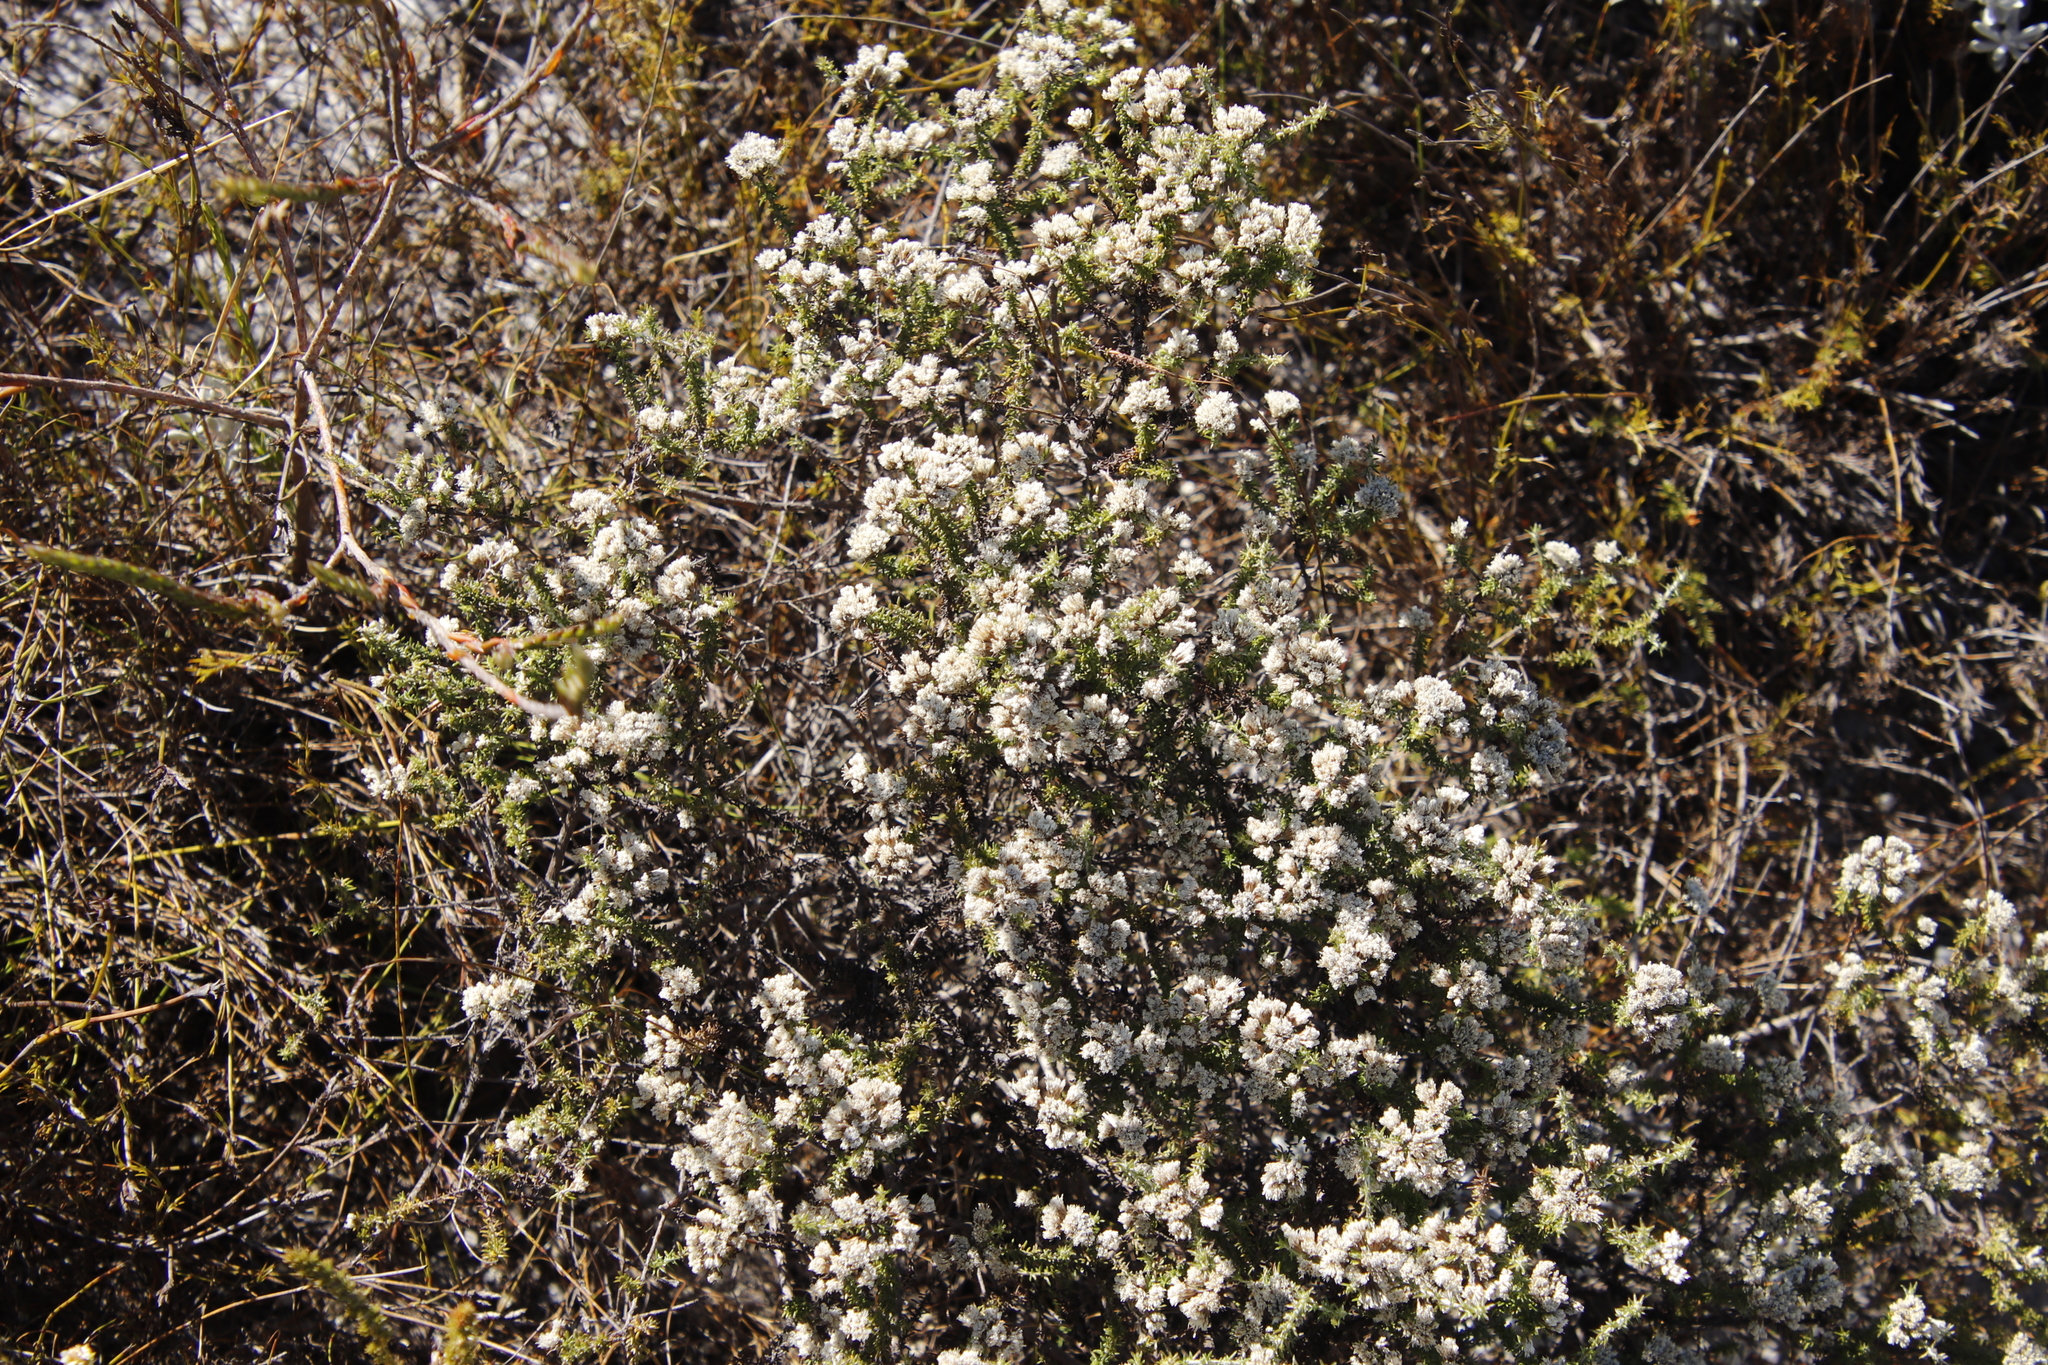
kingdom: Plantae
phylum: Tracheophyta
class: Magnoliopsida
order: Asterales
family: Asteraceae
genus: Metalasia
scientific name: Metalasia brevifolia
